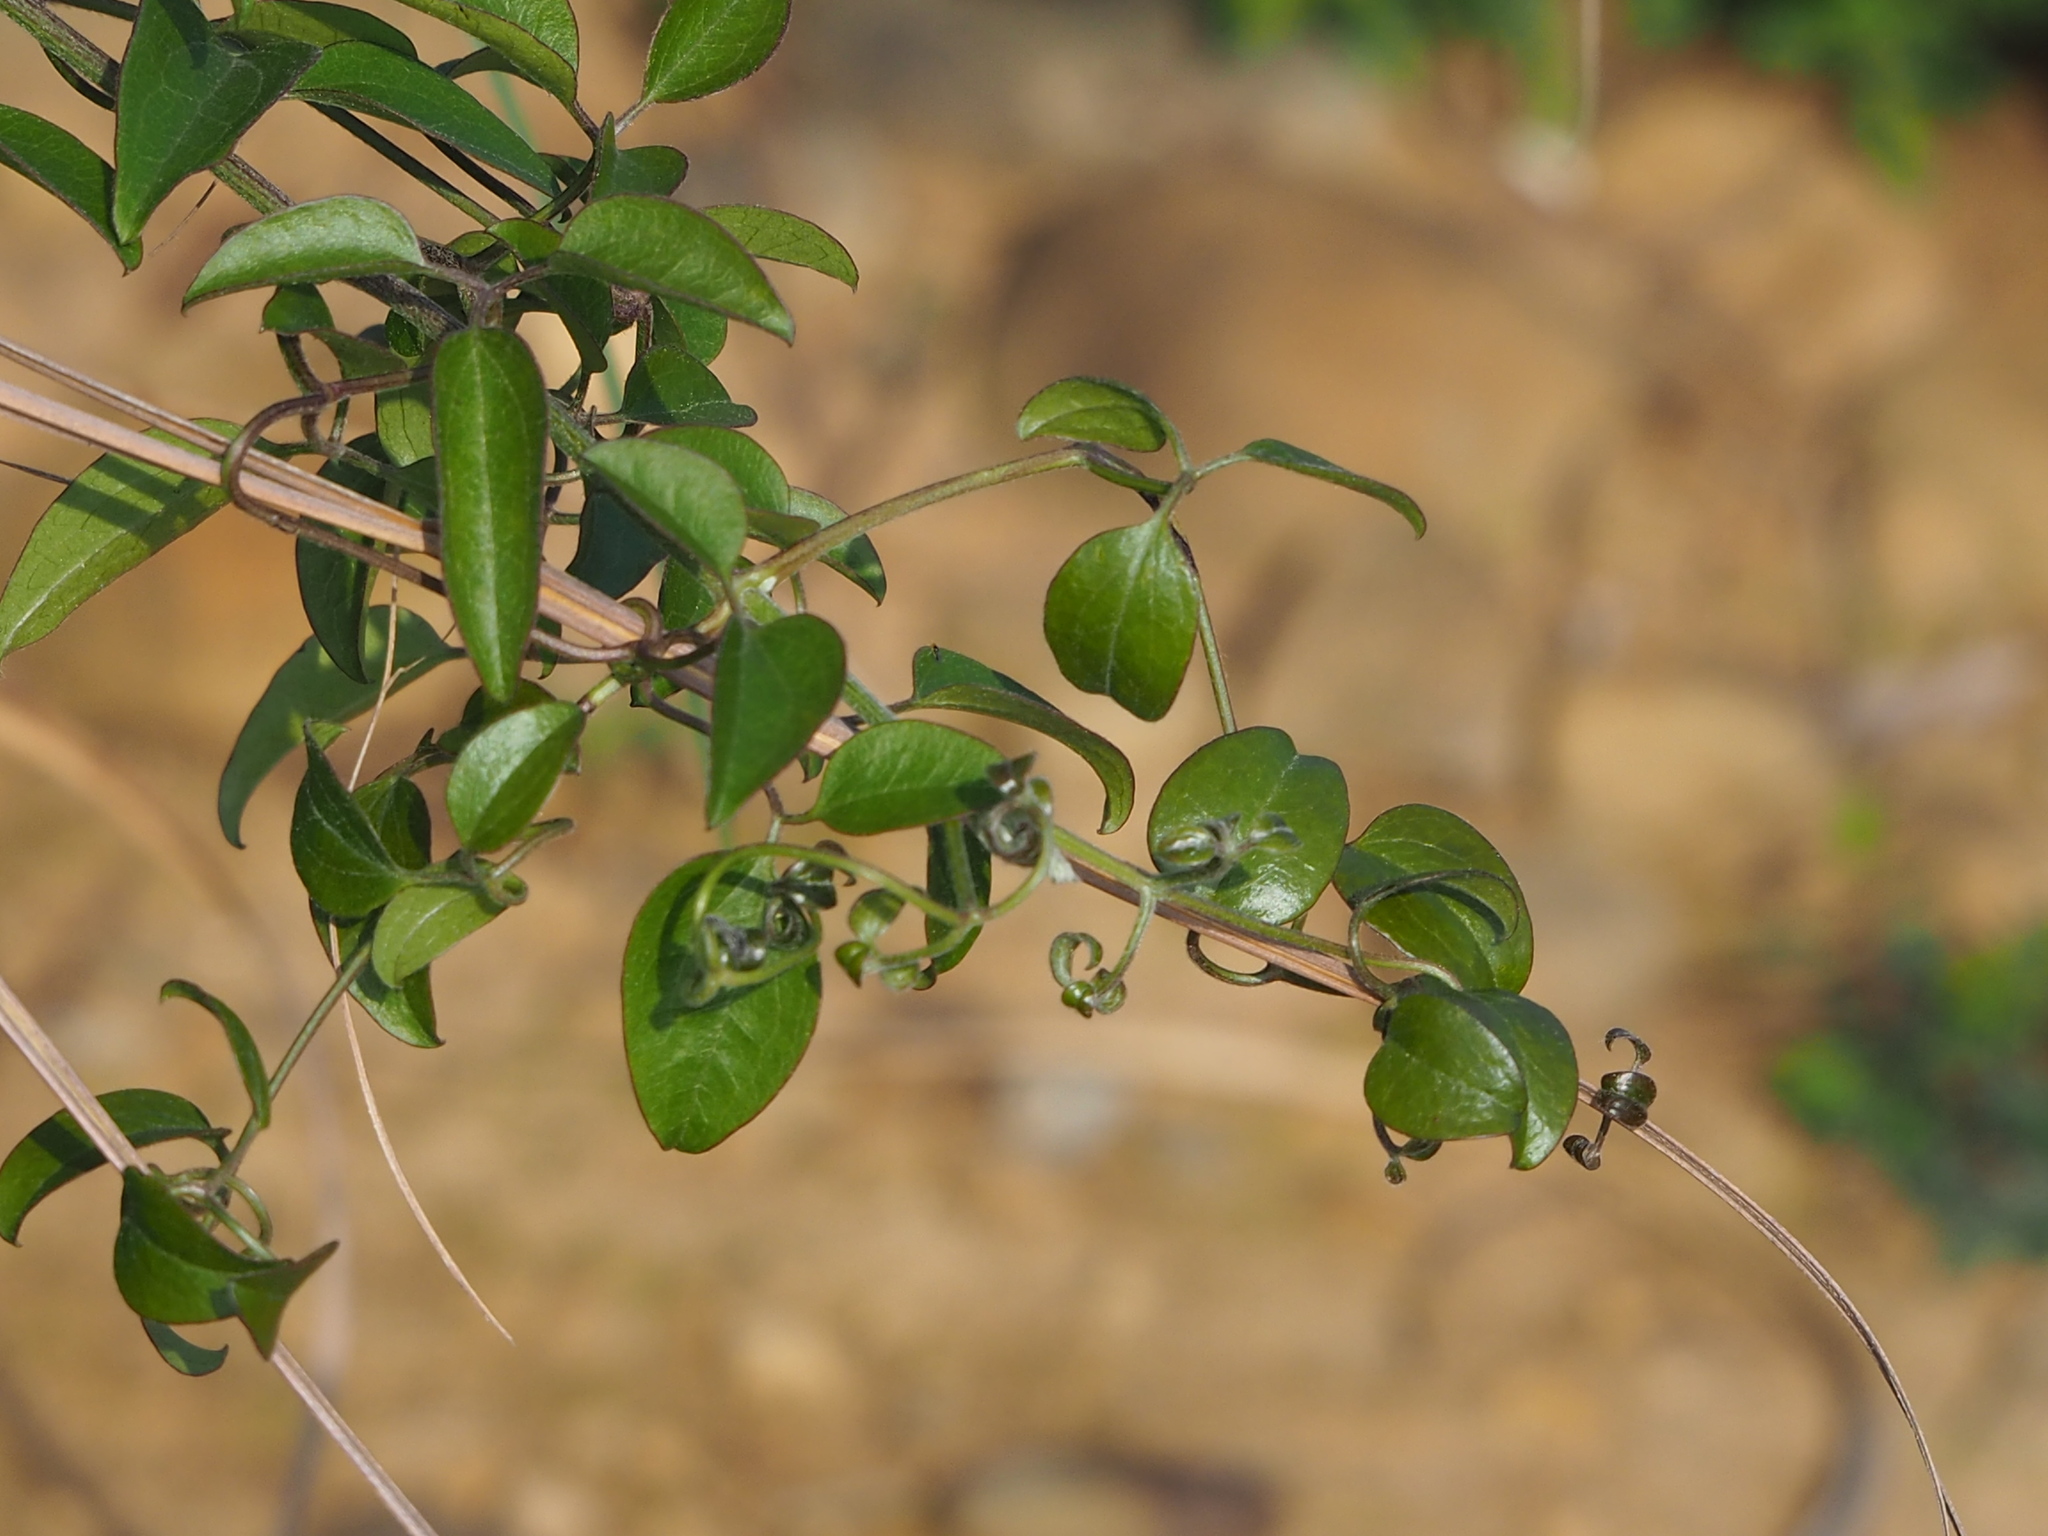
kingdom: Plantae
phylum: Tracheophyta
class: Magnoliopsida
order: Ranunculales
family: Ranunculaceae
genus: Clematis
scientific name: Clematis chinensis
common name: Chinese clematis
